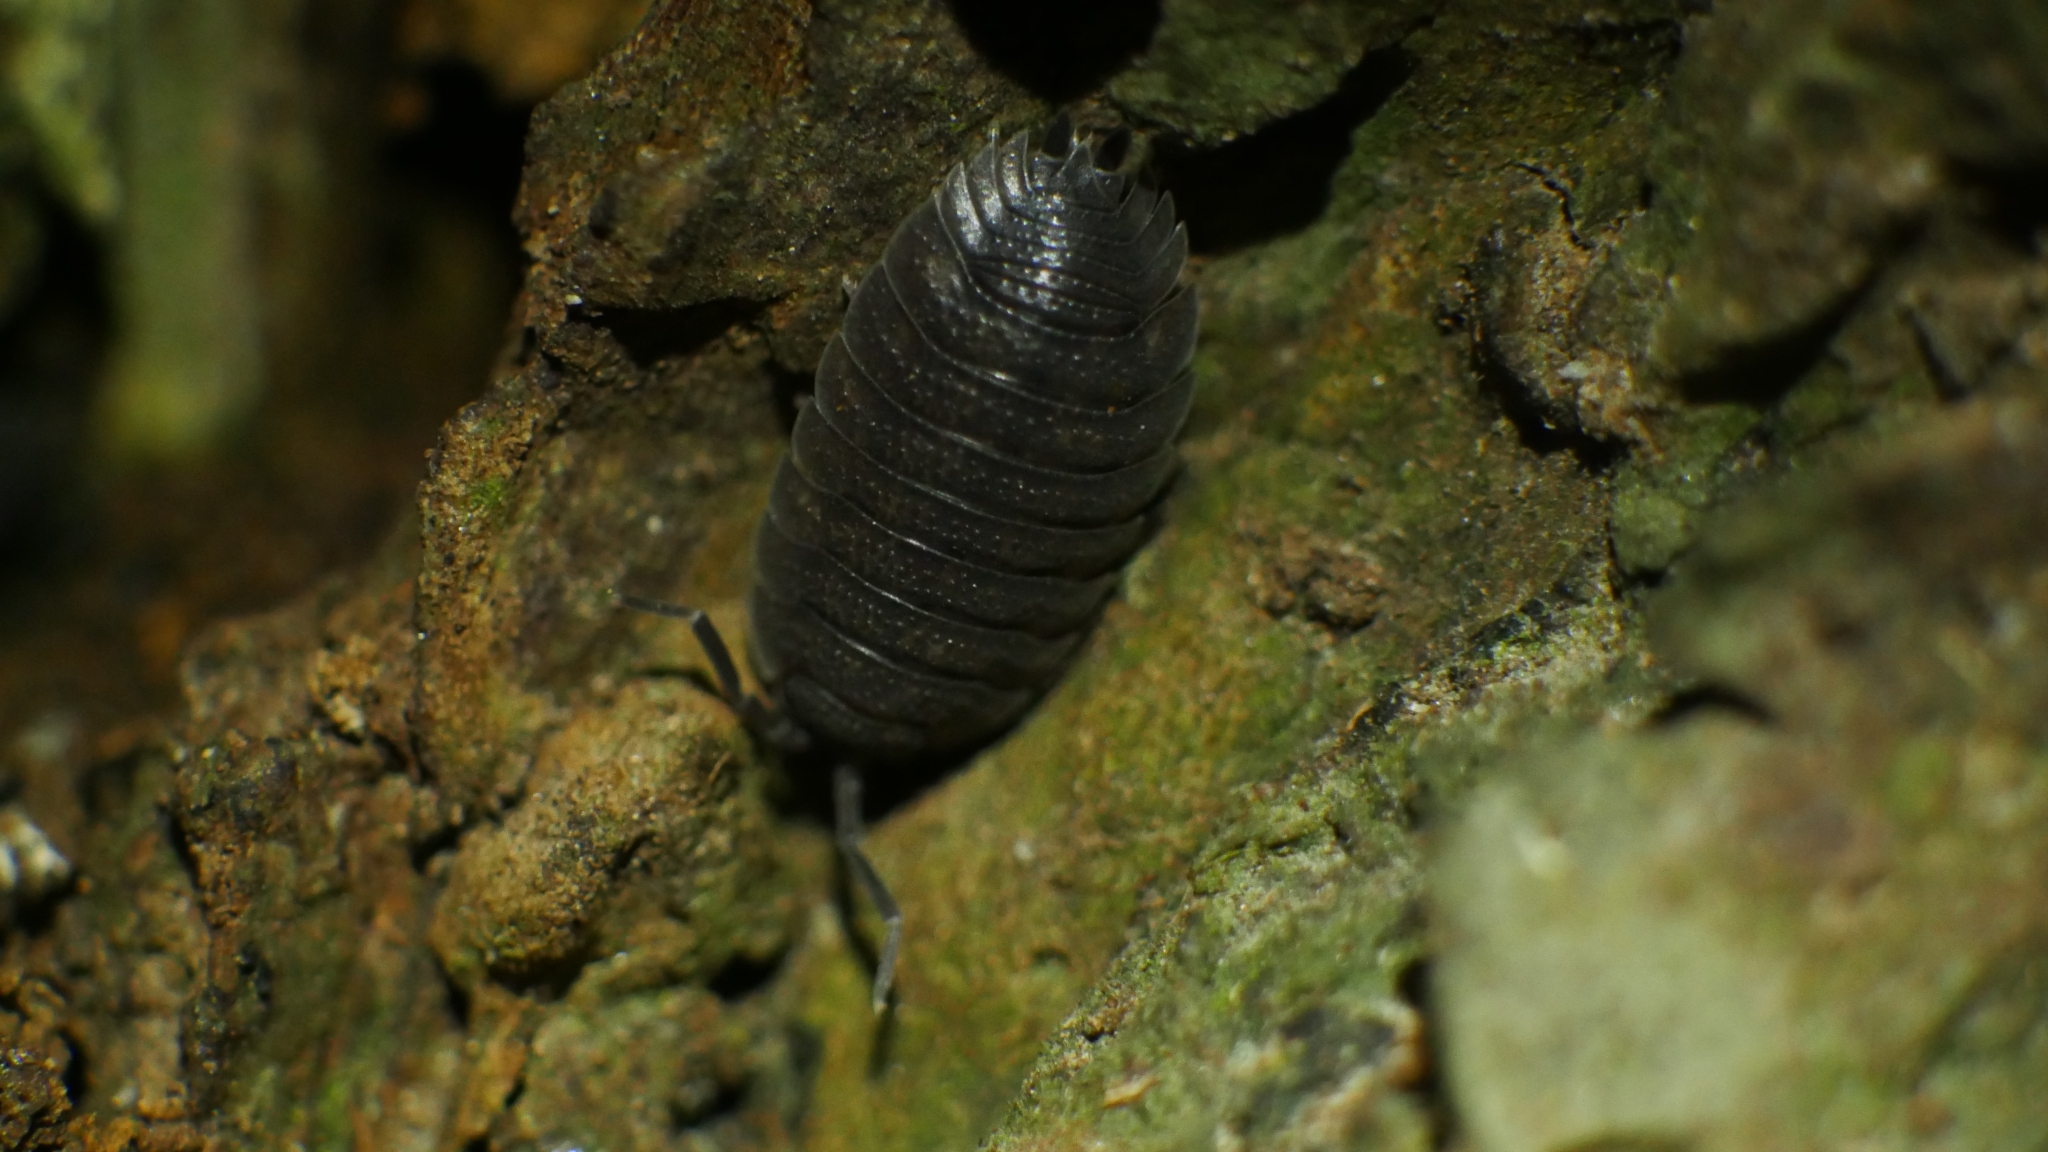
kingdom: Animalia
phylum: Arthropoda
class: Malacostraca
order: Isopoda
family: Porcellionidae
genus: Porcellio
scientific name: Porcellio scaber
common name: Common rough woodlouse
